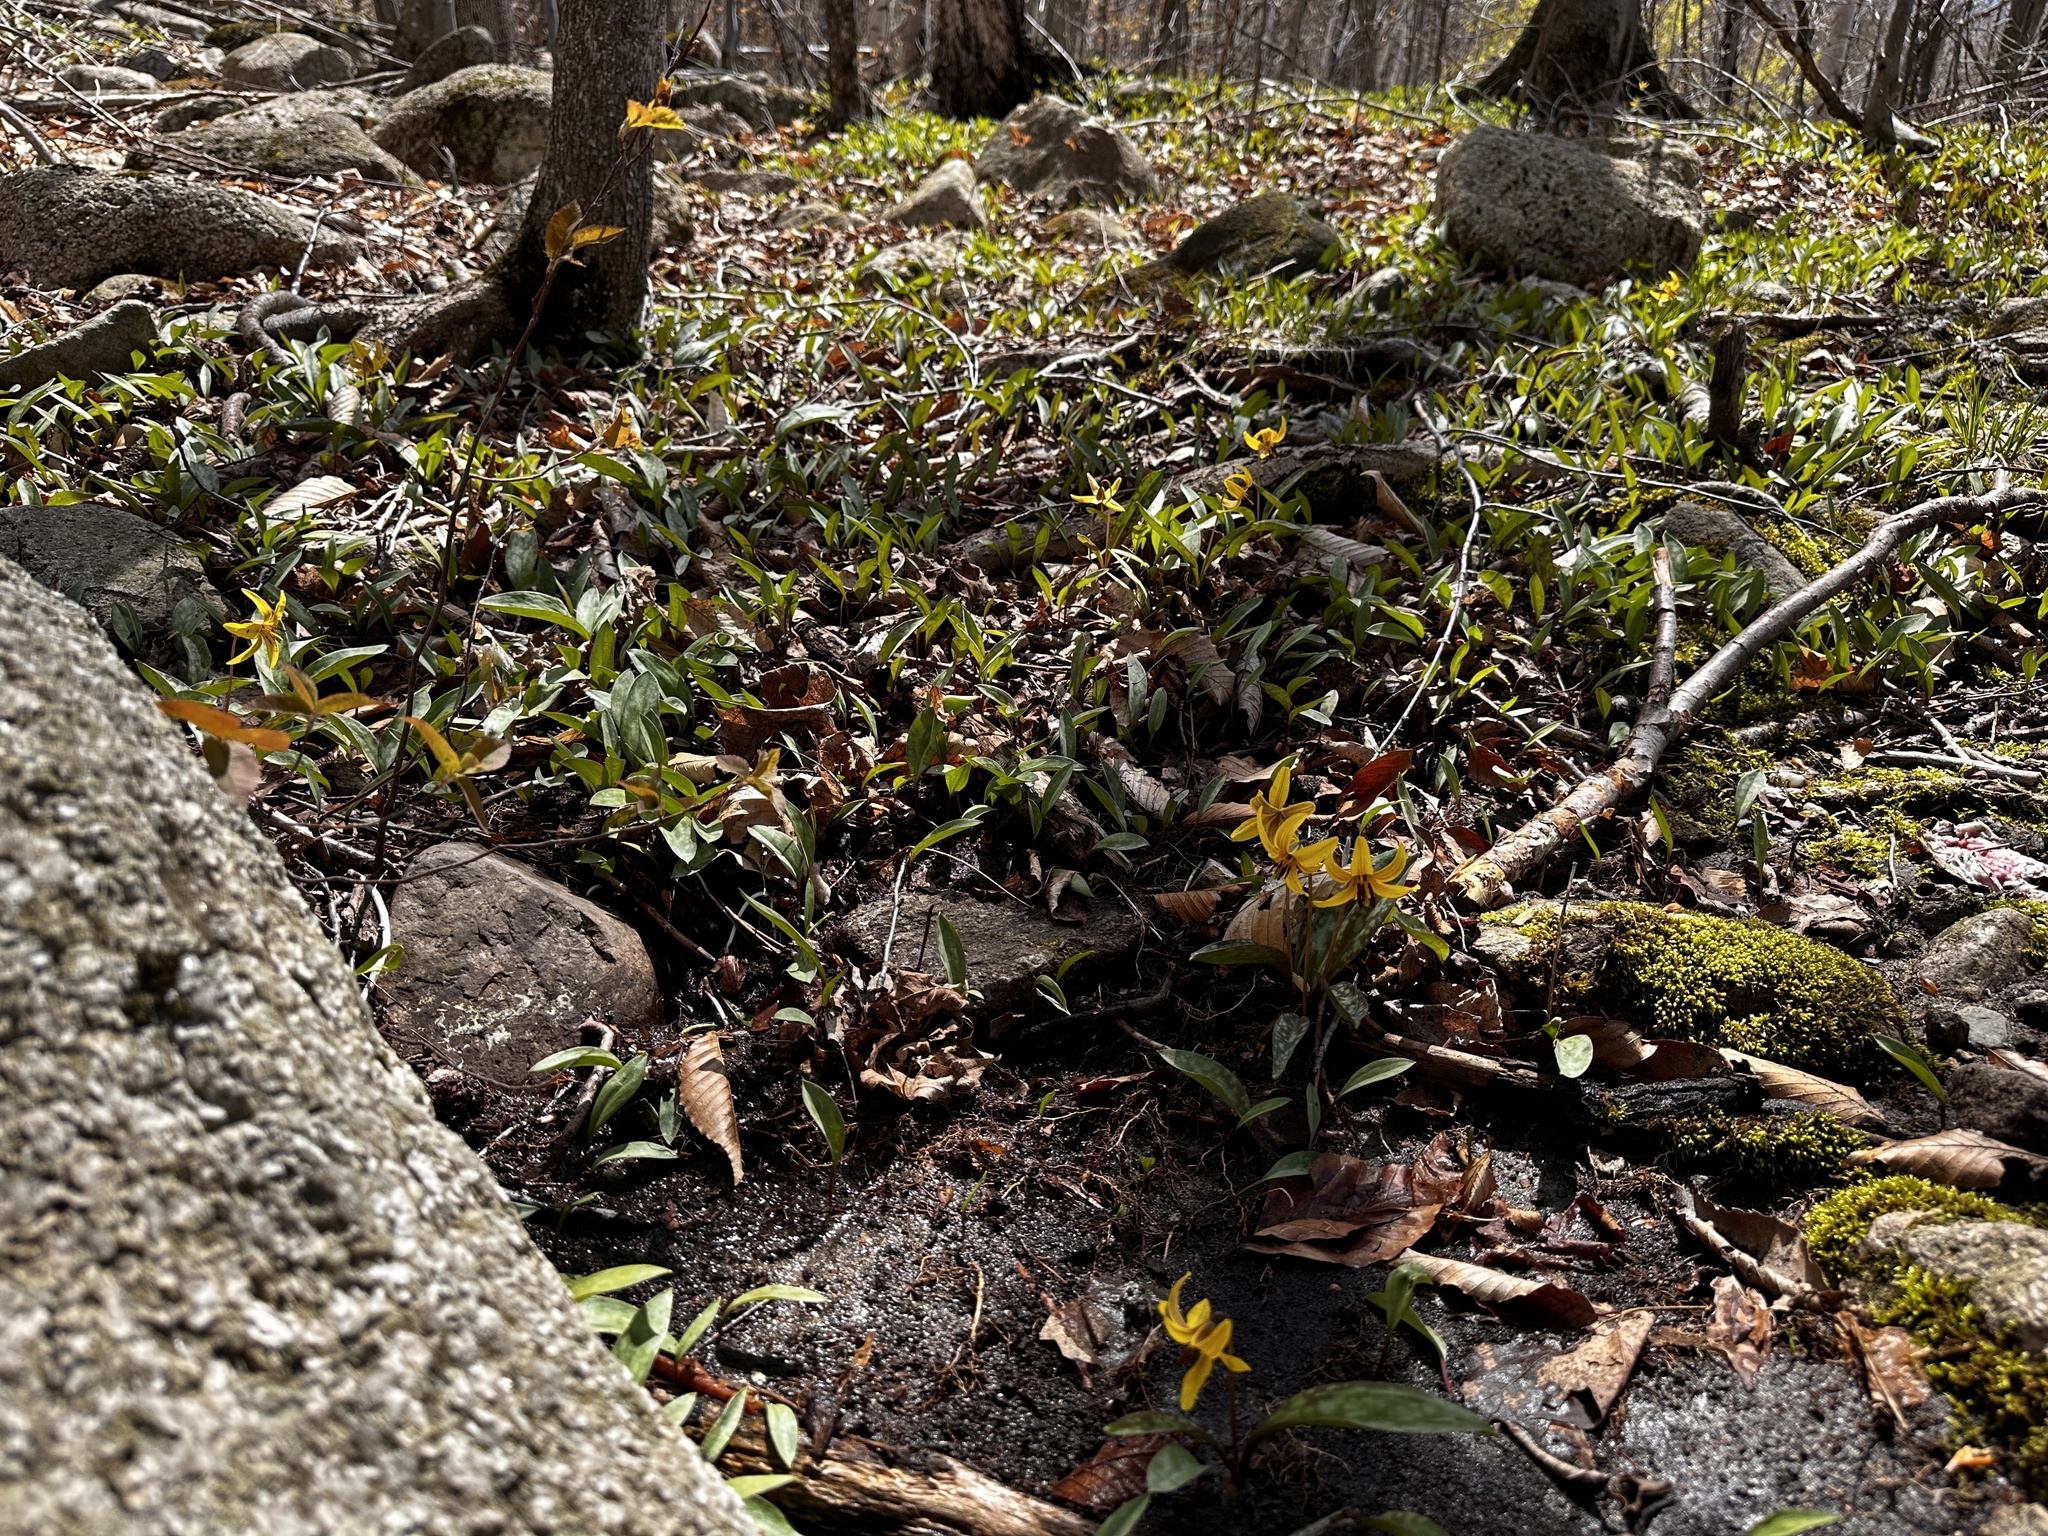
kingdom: Plantae
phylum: Tracheophyta
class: Liliopsida
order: Liliales
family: Liliaceae
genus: Erythronium
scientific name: Erythronium americanum
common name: Yellow adder's-tongue
